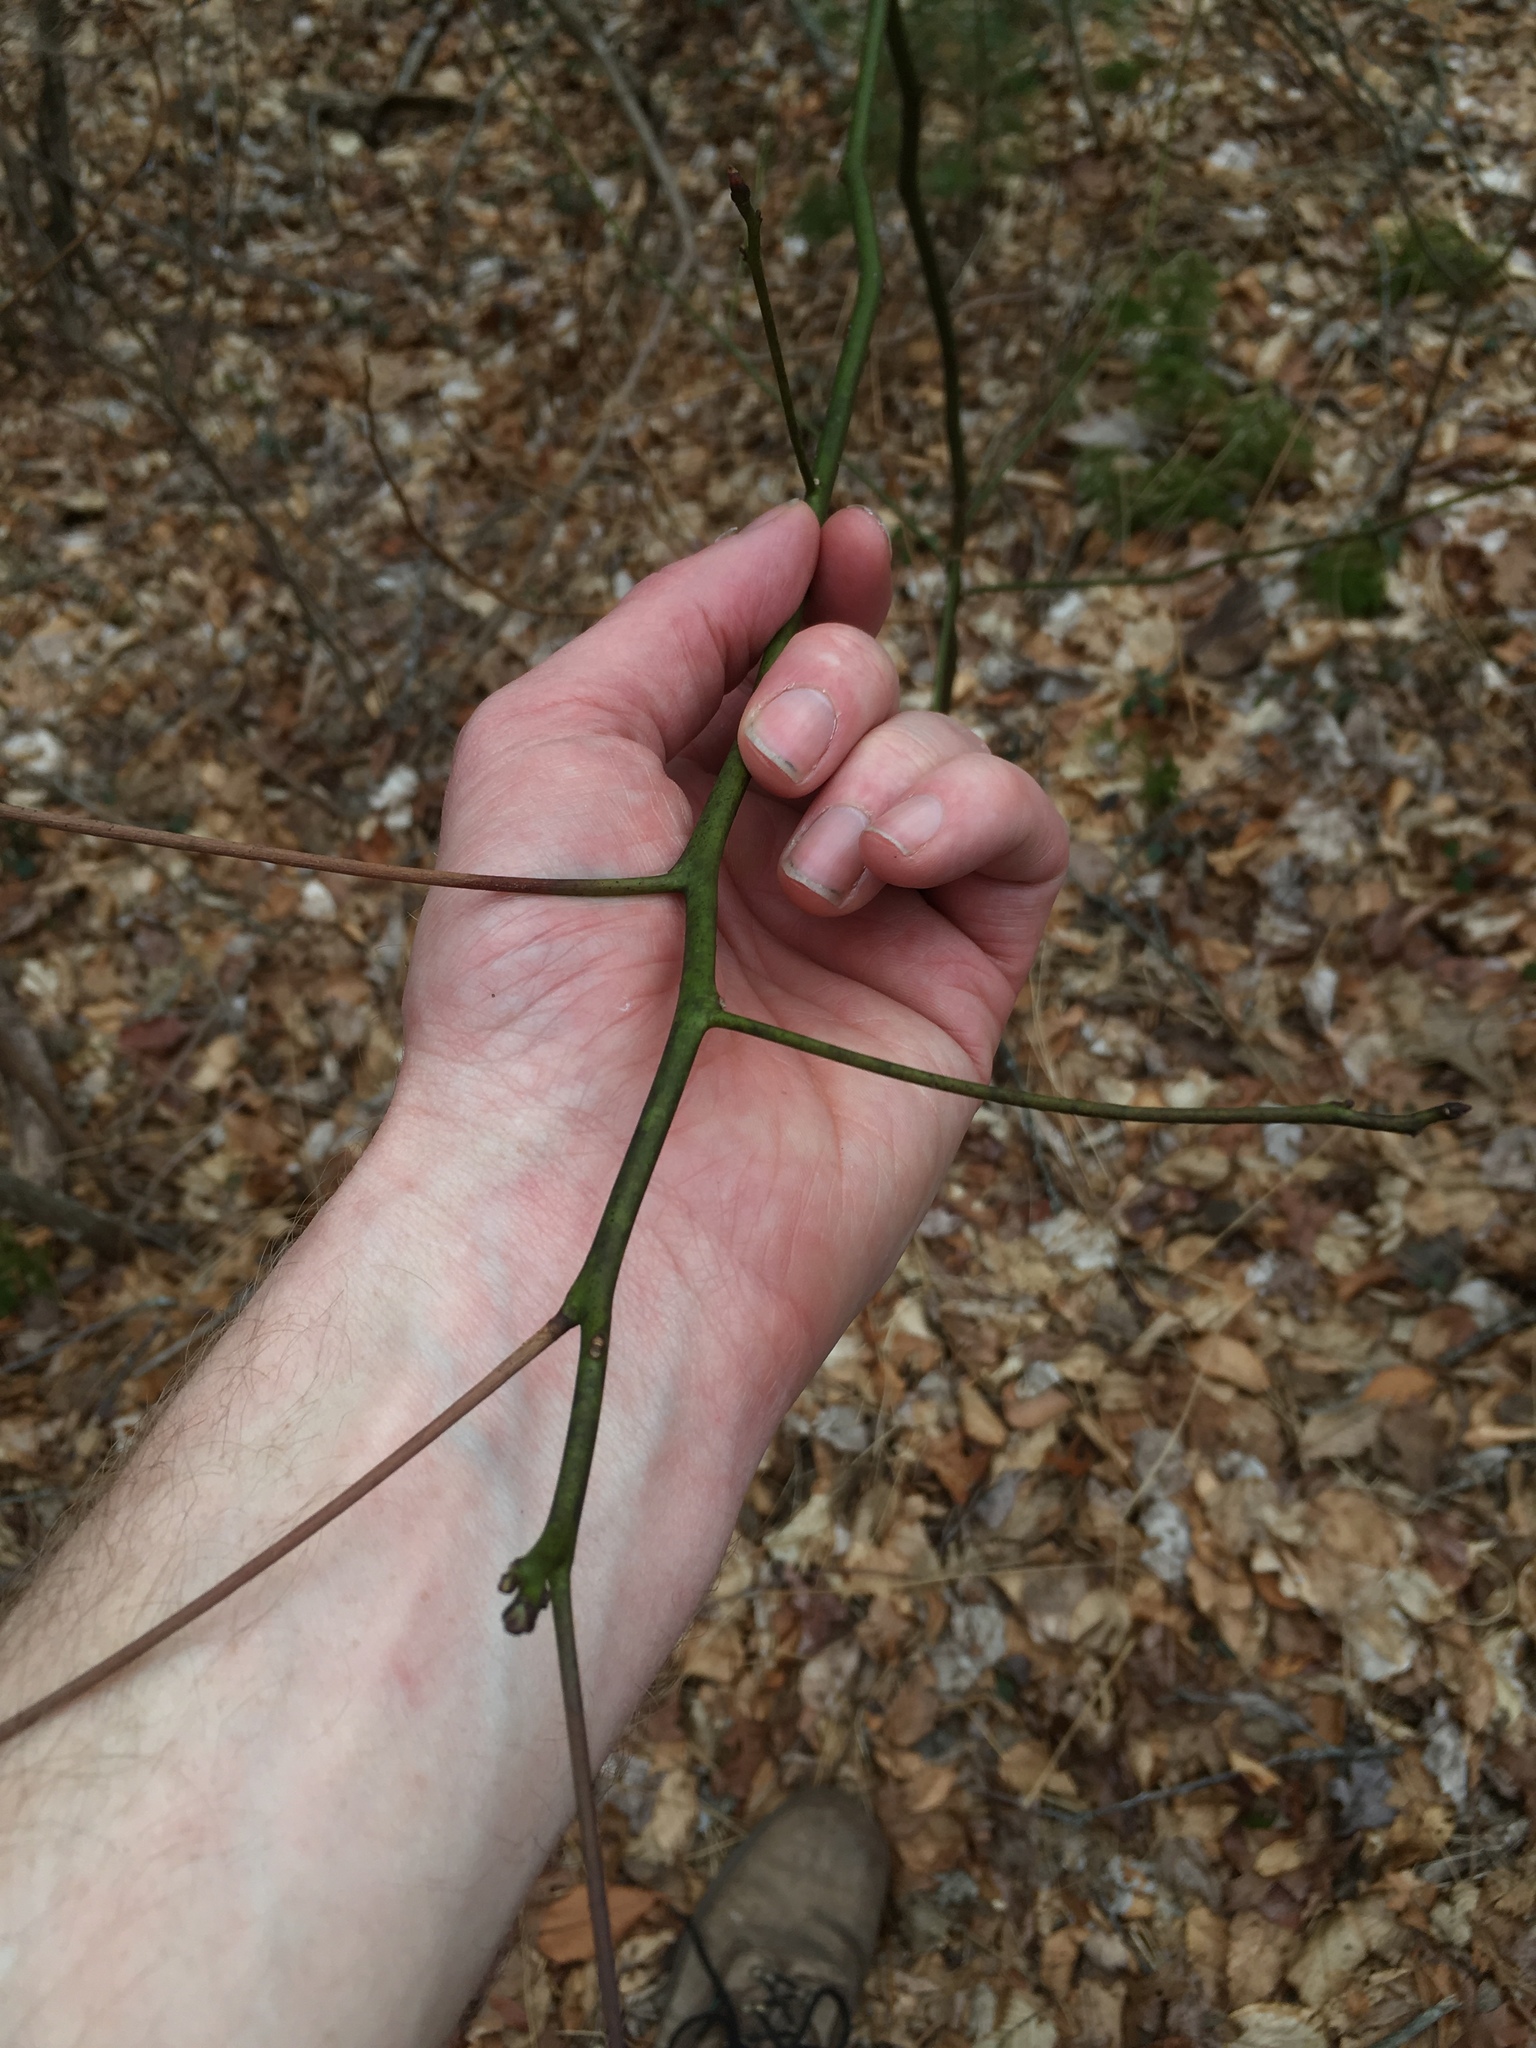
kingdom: Plantae
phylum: Tracheophyta
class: Magnoliopsida
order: Laurales
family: Lauraceae
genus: Sassafras
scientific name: Sassafras albidum
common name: Sassafras
